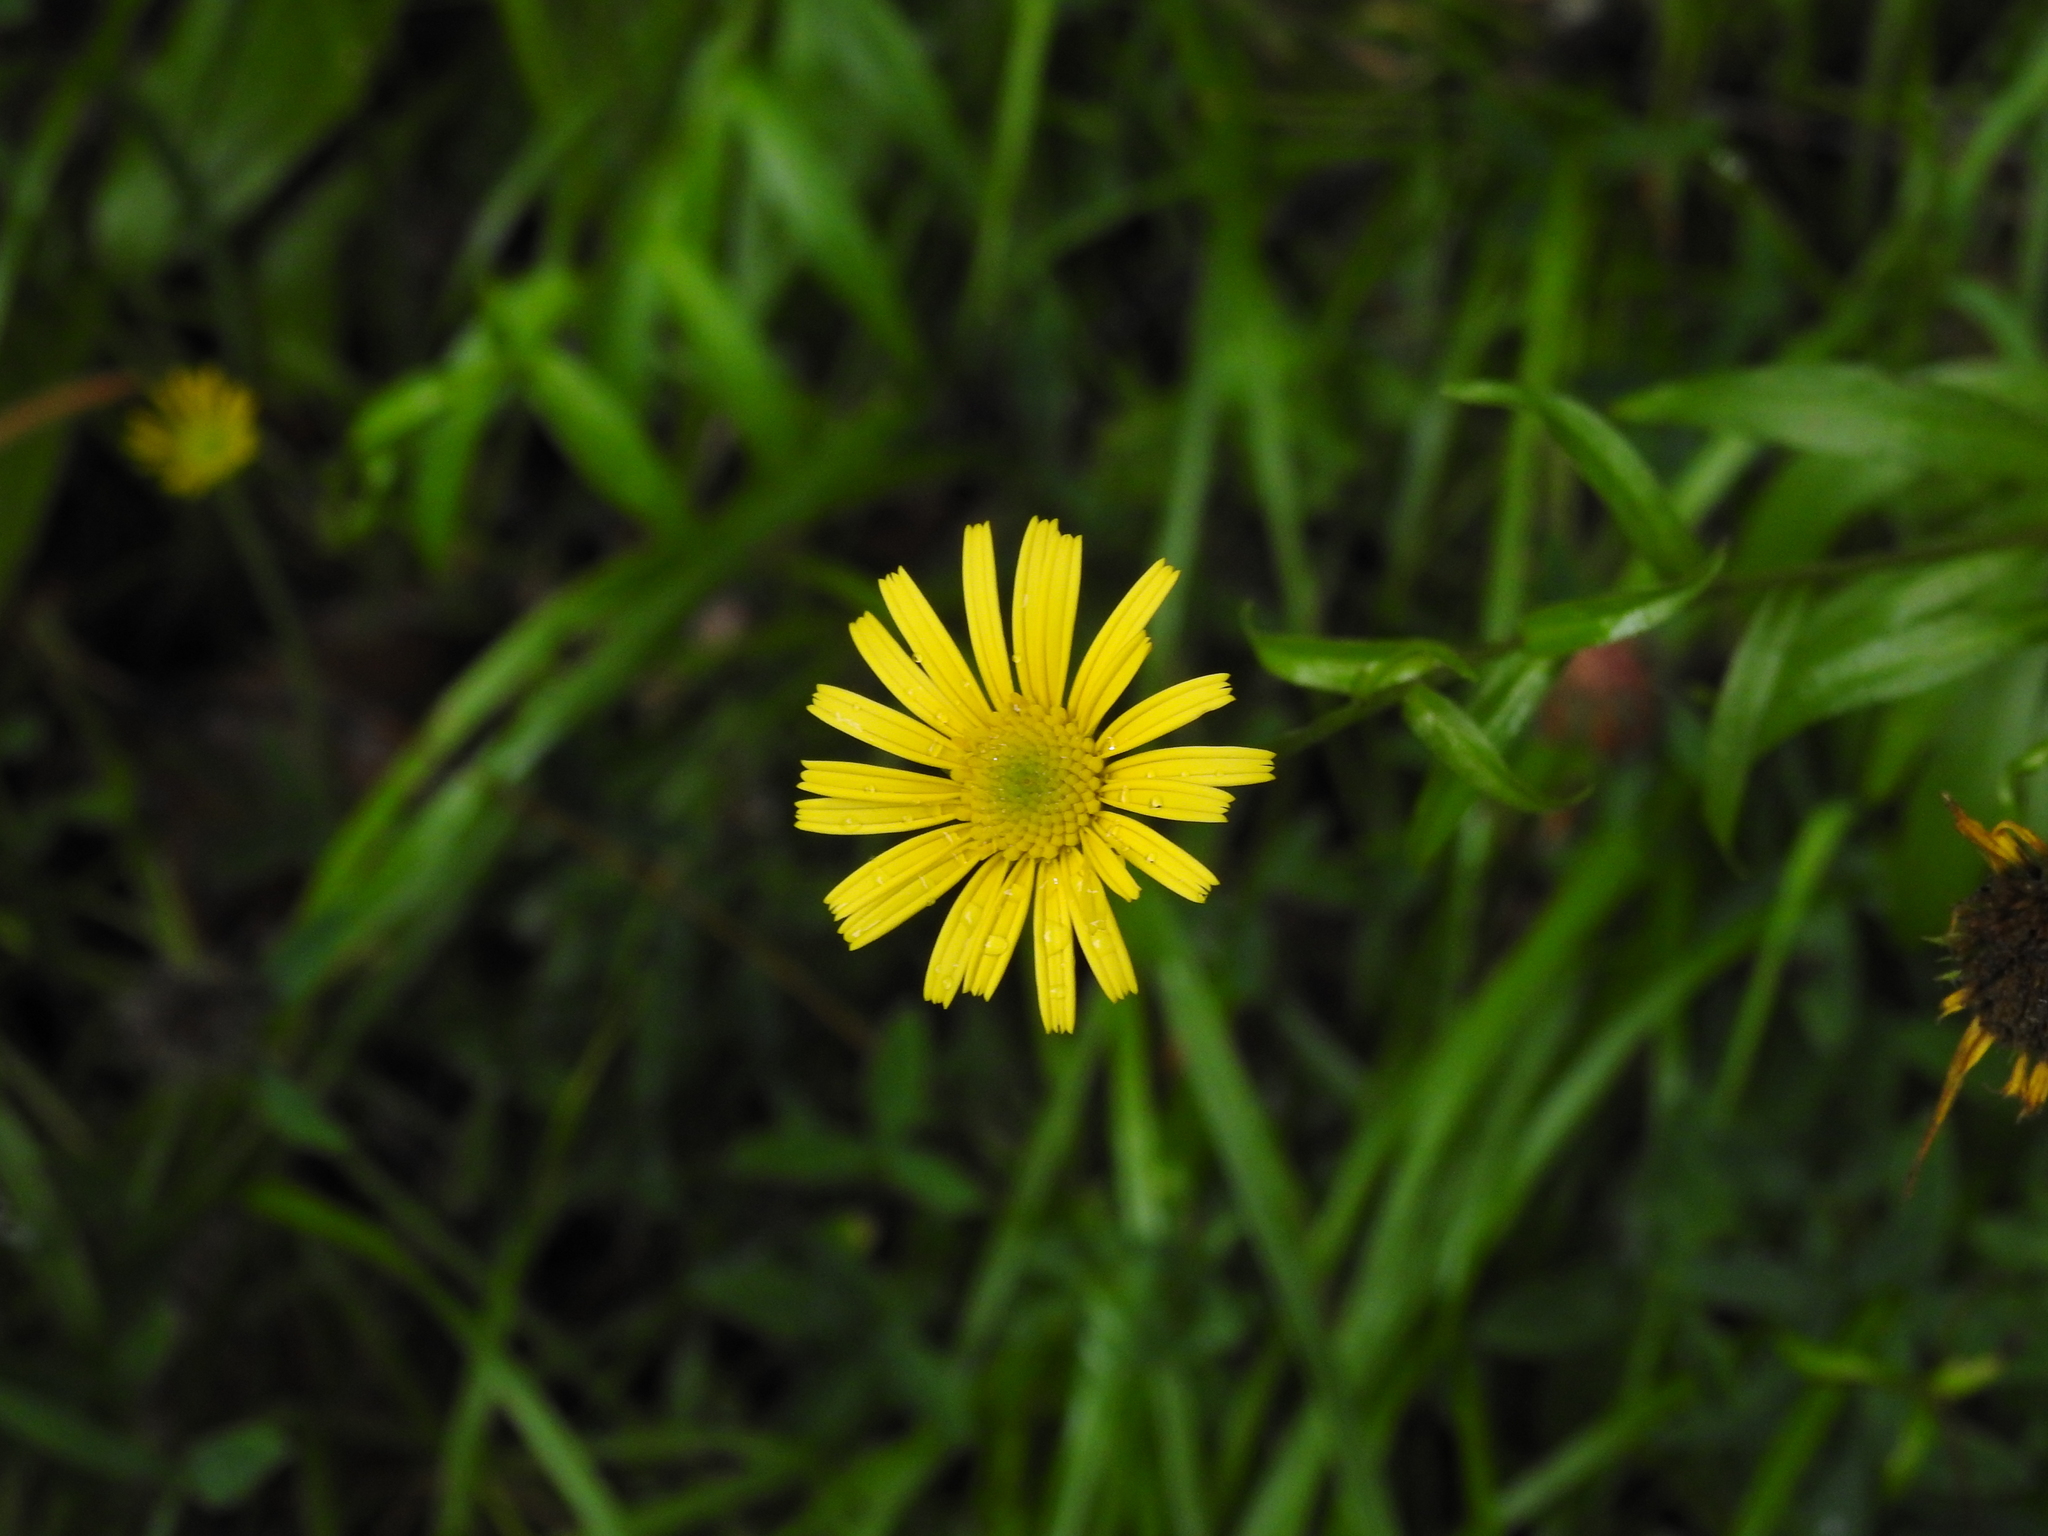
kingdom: Plantae
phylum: Tracheophyta
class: Magnoliopsida
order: Asterales
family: Asteraceae
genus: Buphthalmum
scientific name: Buphthalmum salicifolium
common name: Willow-leaved yellow-oxeye
